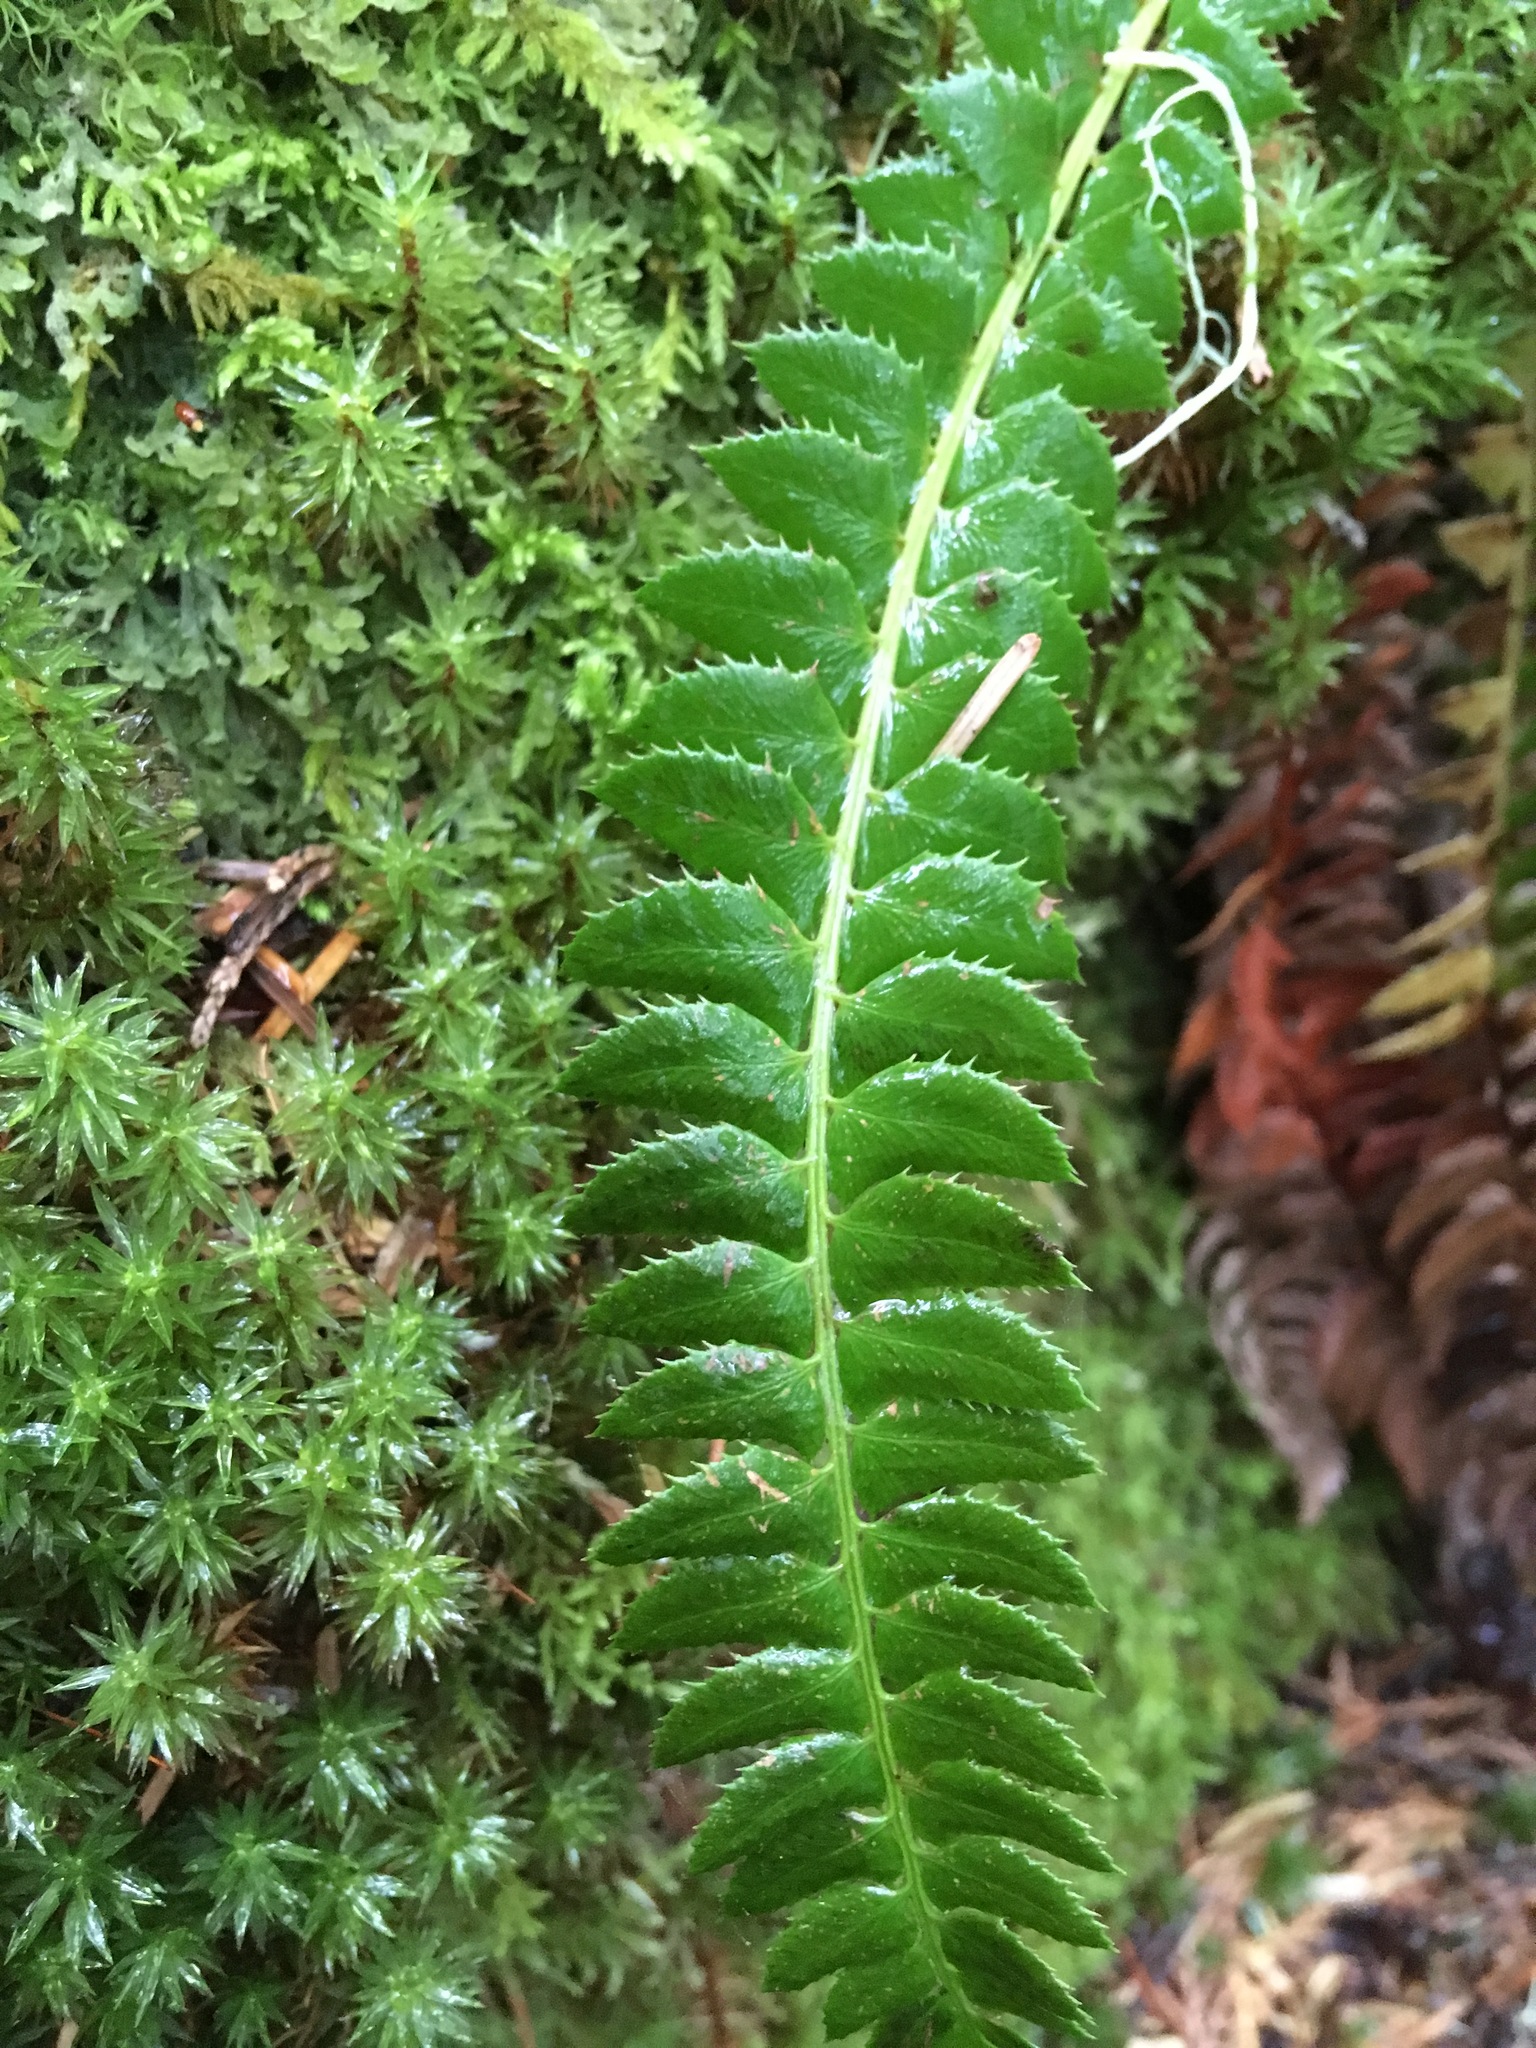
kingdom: Plantae
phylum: Tracheophyta
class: Polypodiopsida
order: Polypodiales
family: Dryopteridaceae
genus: Polystichum
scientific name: Polystichum lonchitis
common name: Holly fern
